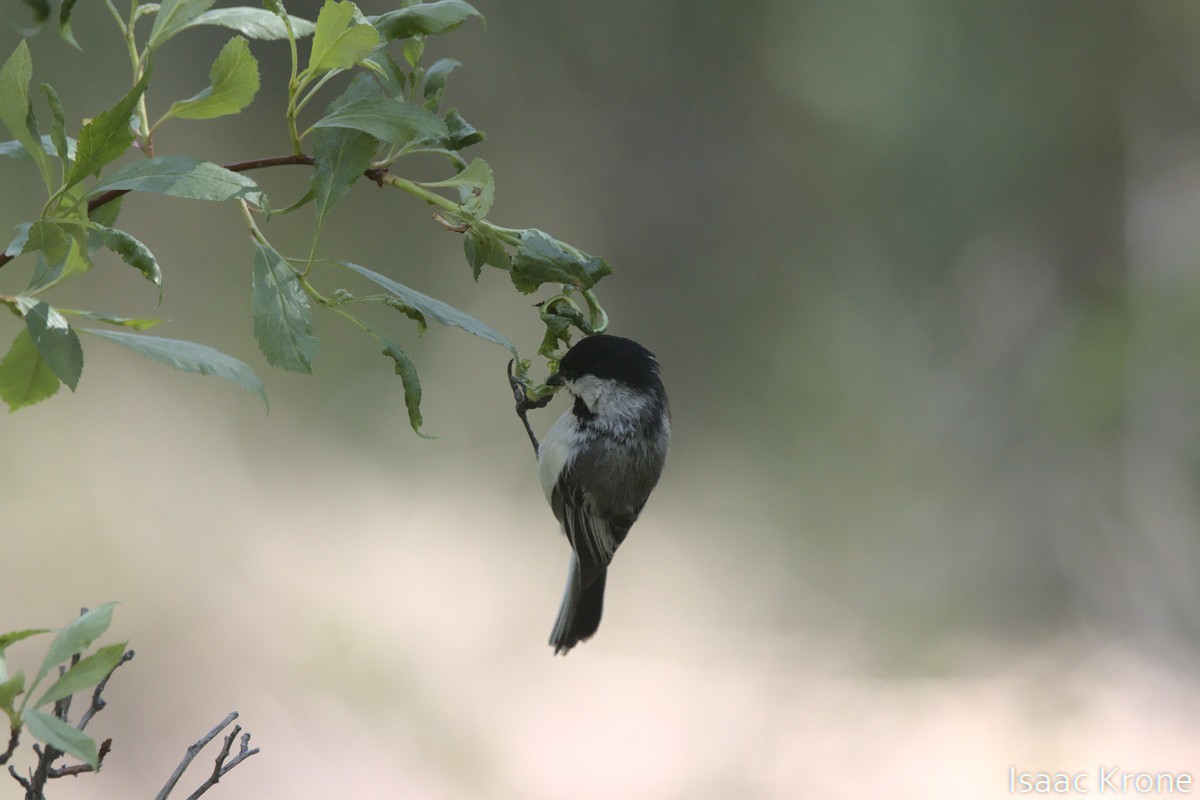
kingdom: Animalia
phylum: Chordata
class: Aves
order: Passeriformes
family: Paridae
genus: Poecile
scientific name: Poecile atricapillus
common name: Black-capped chickadee
